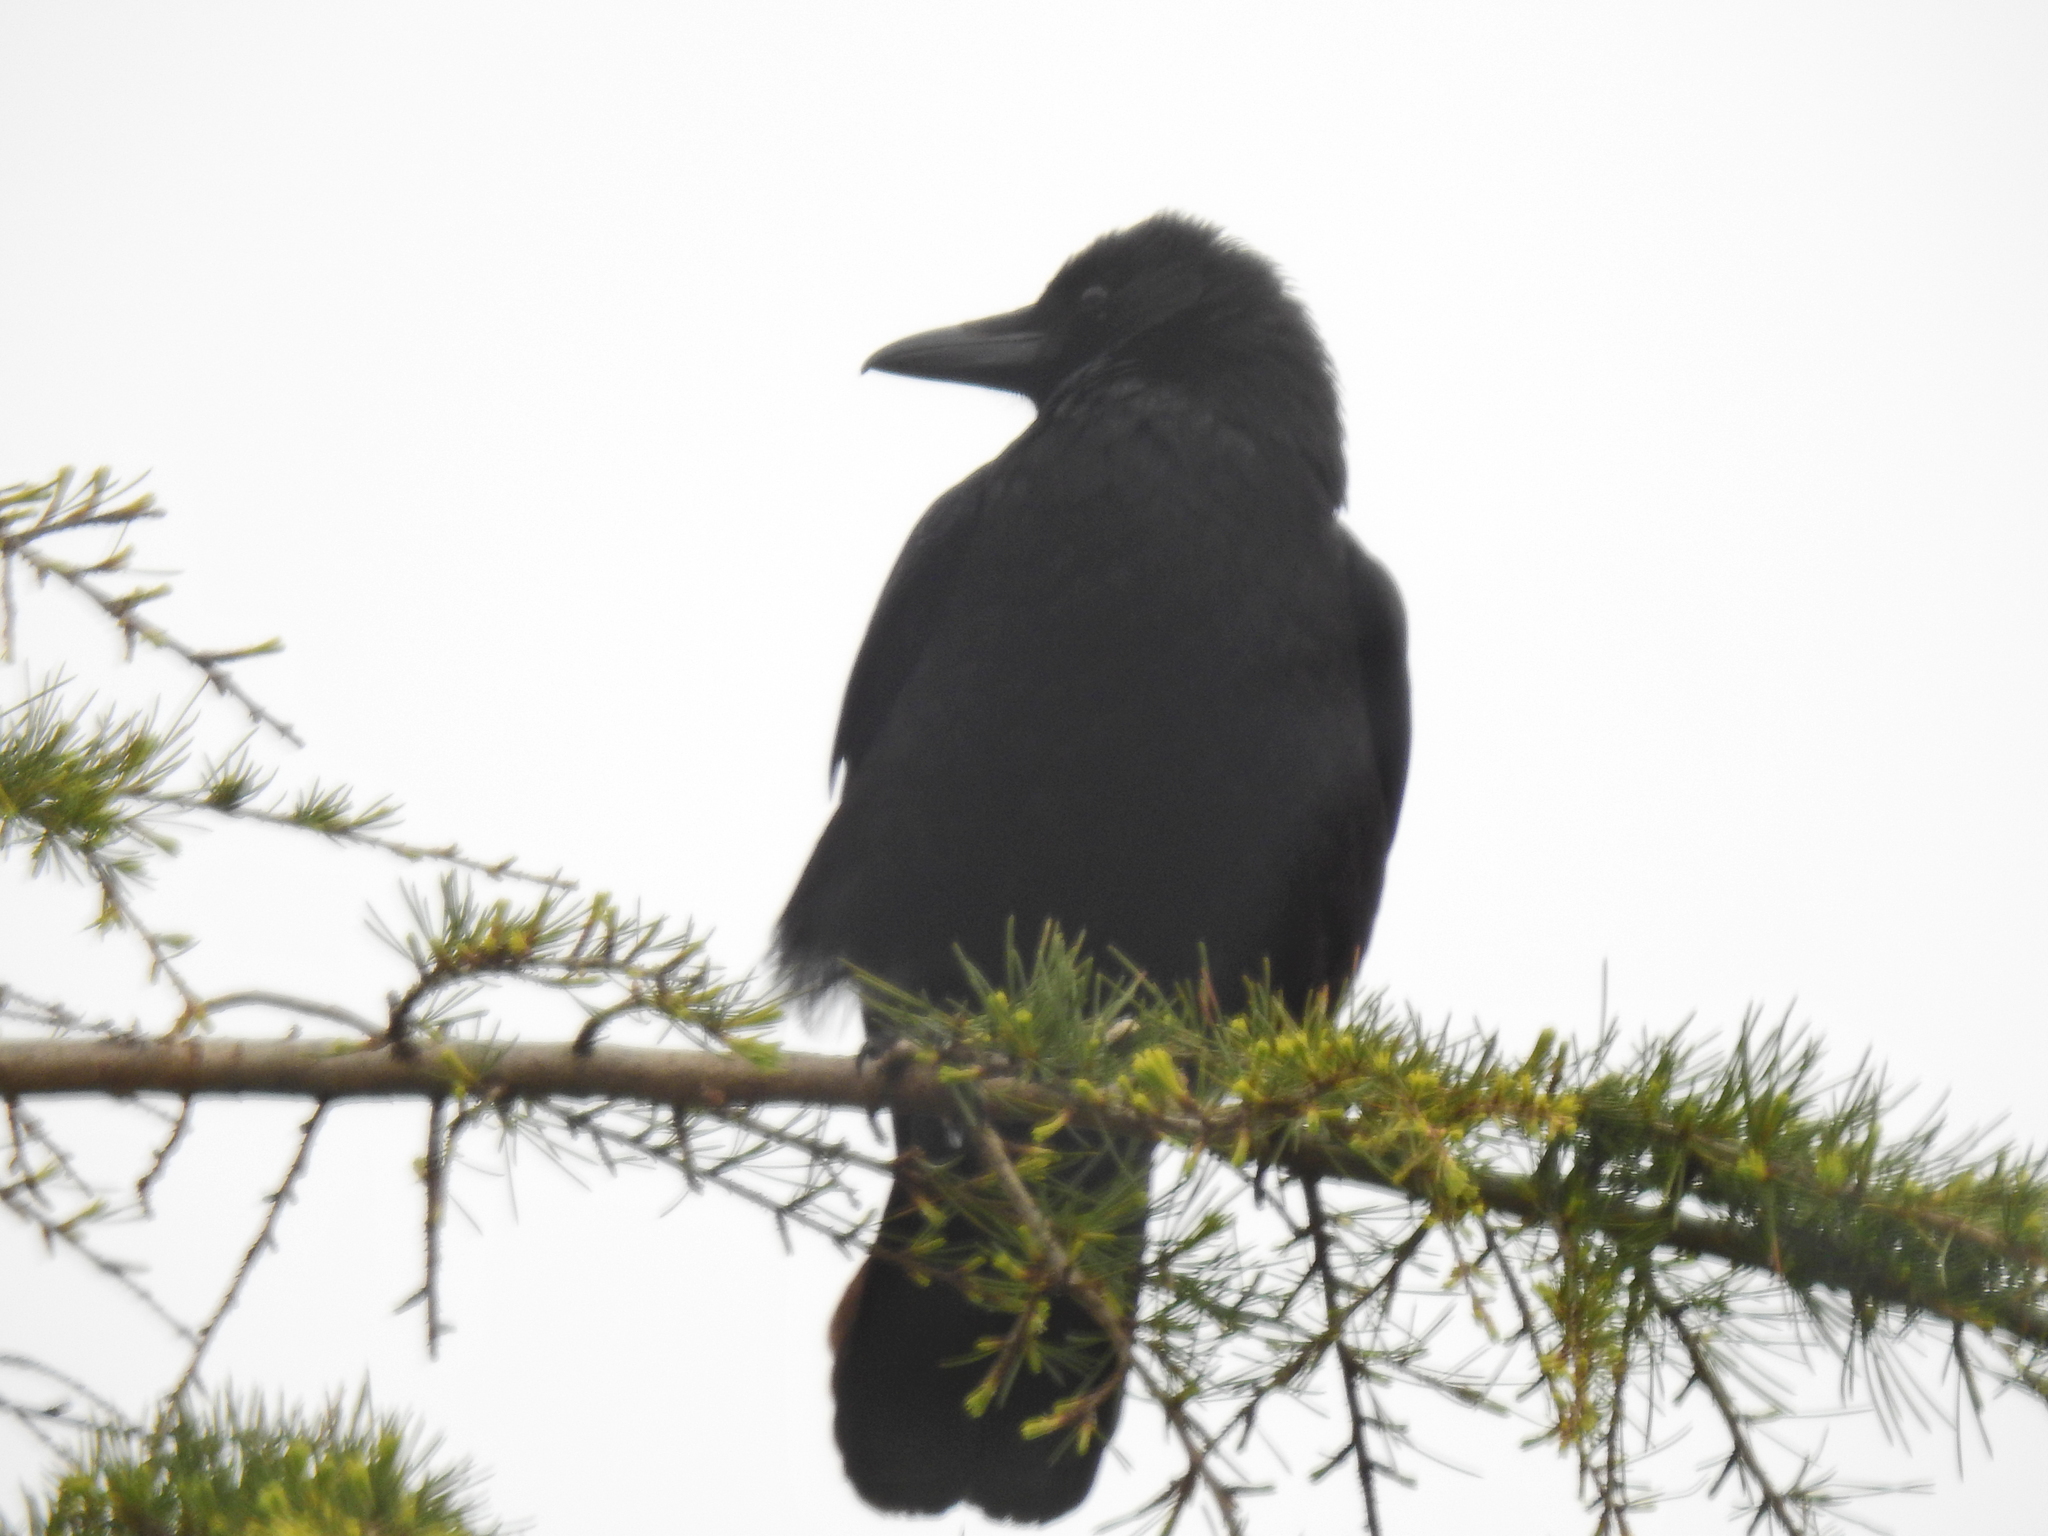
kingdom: Animalia
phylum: Chordata
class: Aves
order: Passeriformes
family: Corvidae
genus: Corvus
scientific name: Corvus corone
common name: Carrion crow
